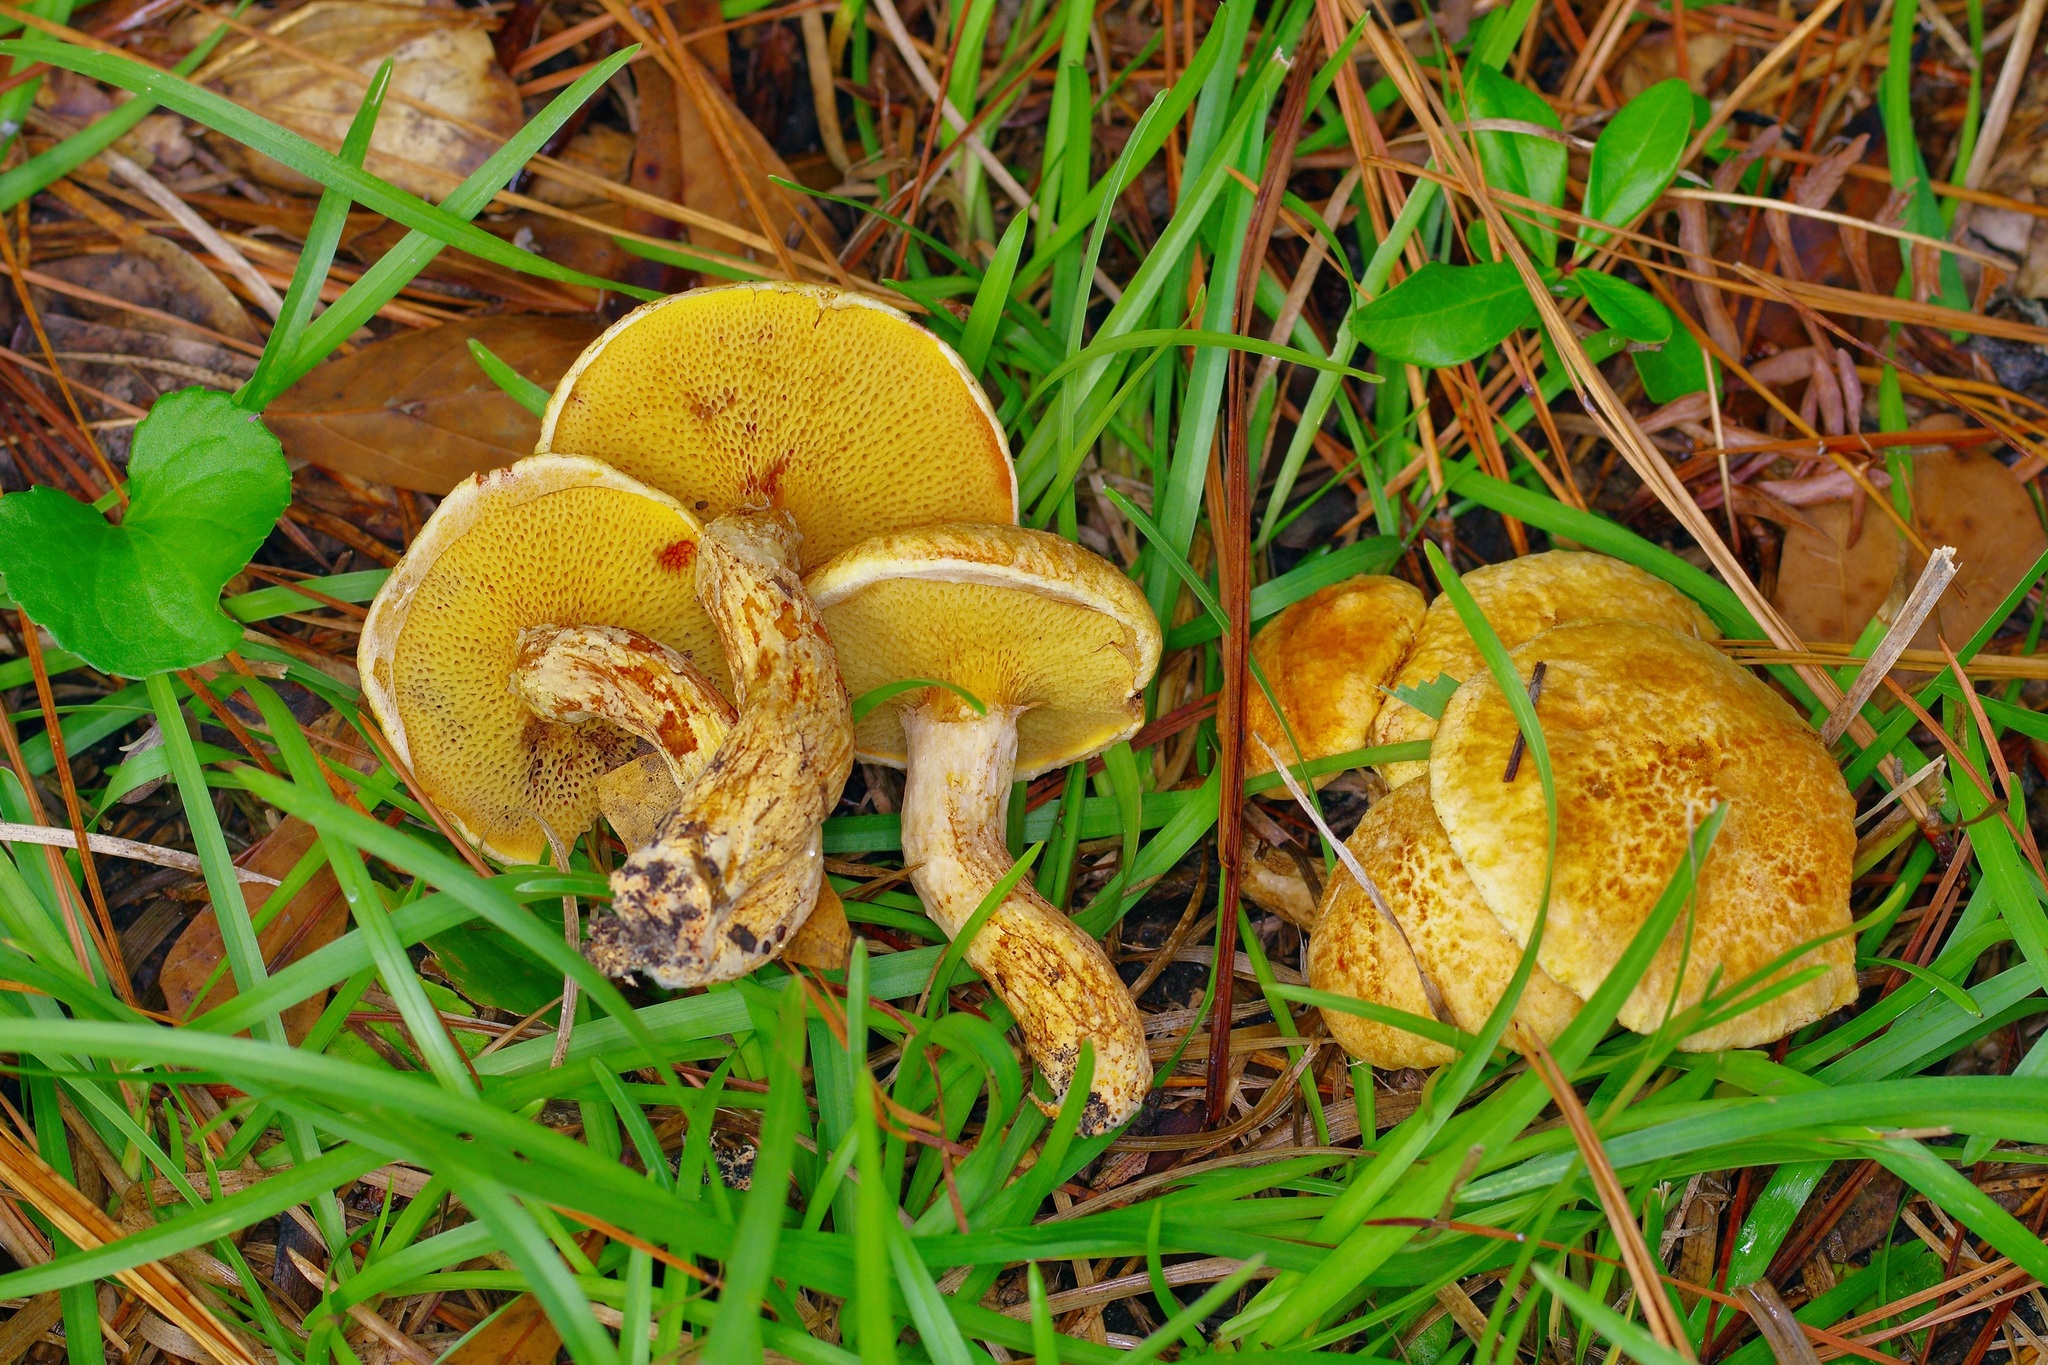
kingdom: Fungi
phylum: Basidiomycota
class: Agaricomycetes
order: Boletales
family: Suillaceae
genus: Suillus
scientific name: Suillus decipiens
